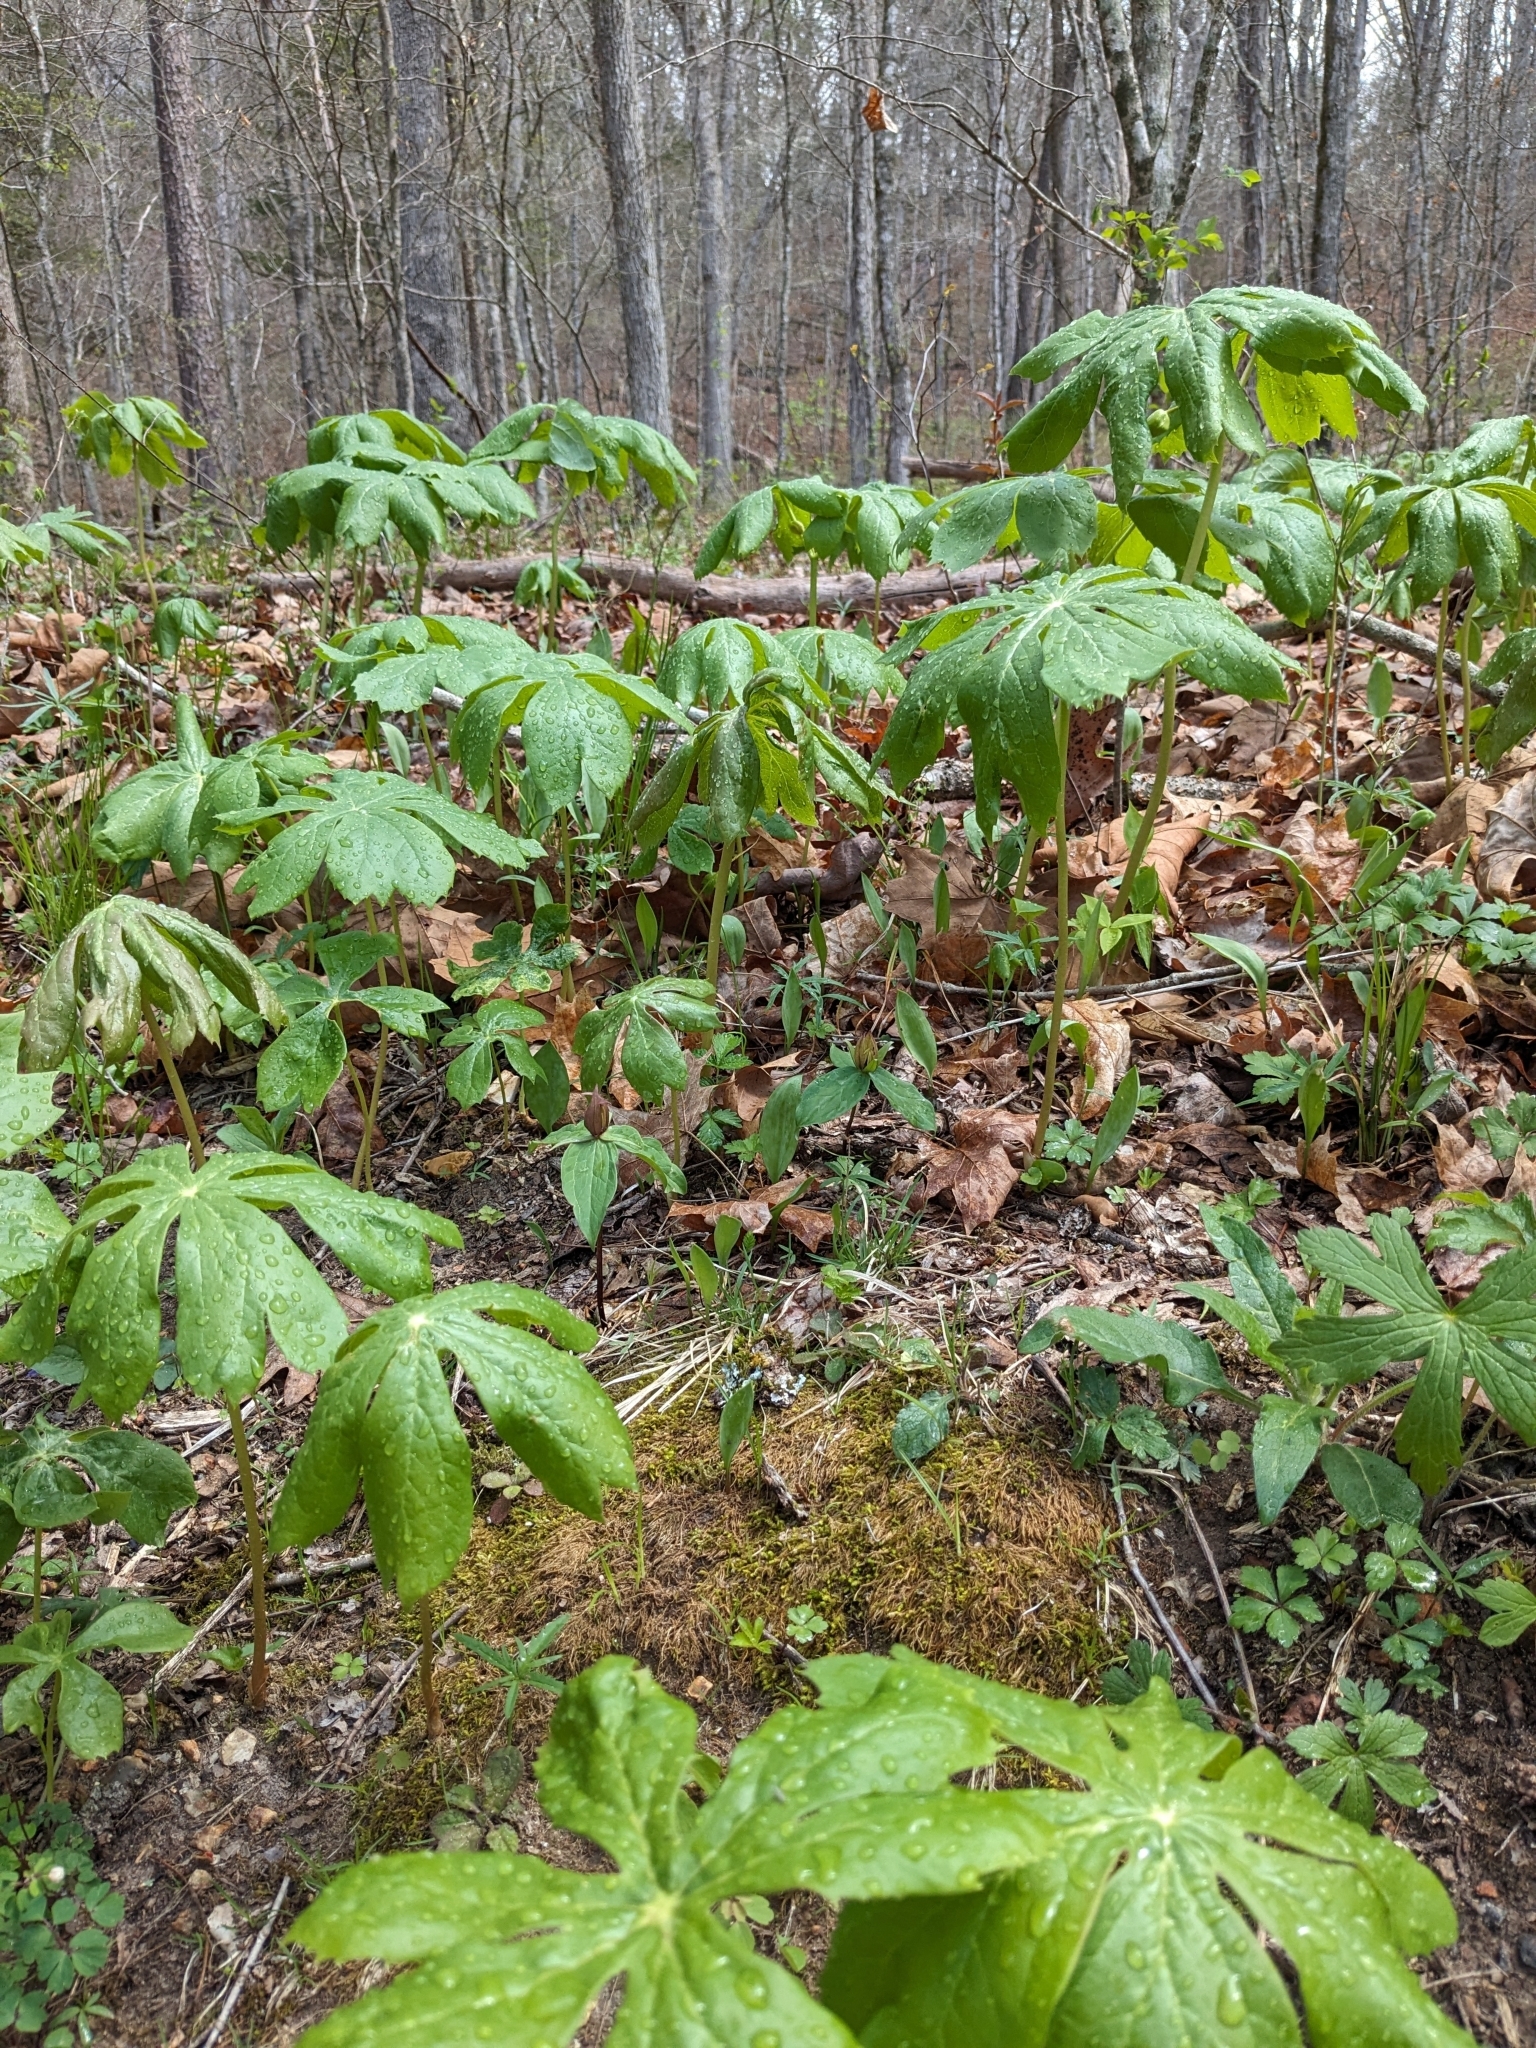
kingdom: Plantae
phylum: Tracheophyta
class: Magnoliopsida
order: Ranunculales
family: Berberidaceae
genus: Podophyllum
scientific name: Podophyllum peltatum
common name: Wild mandrake
